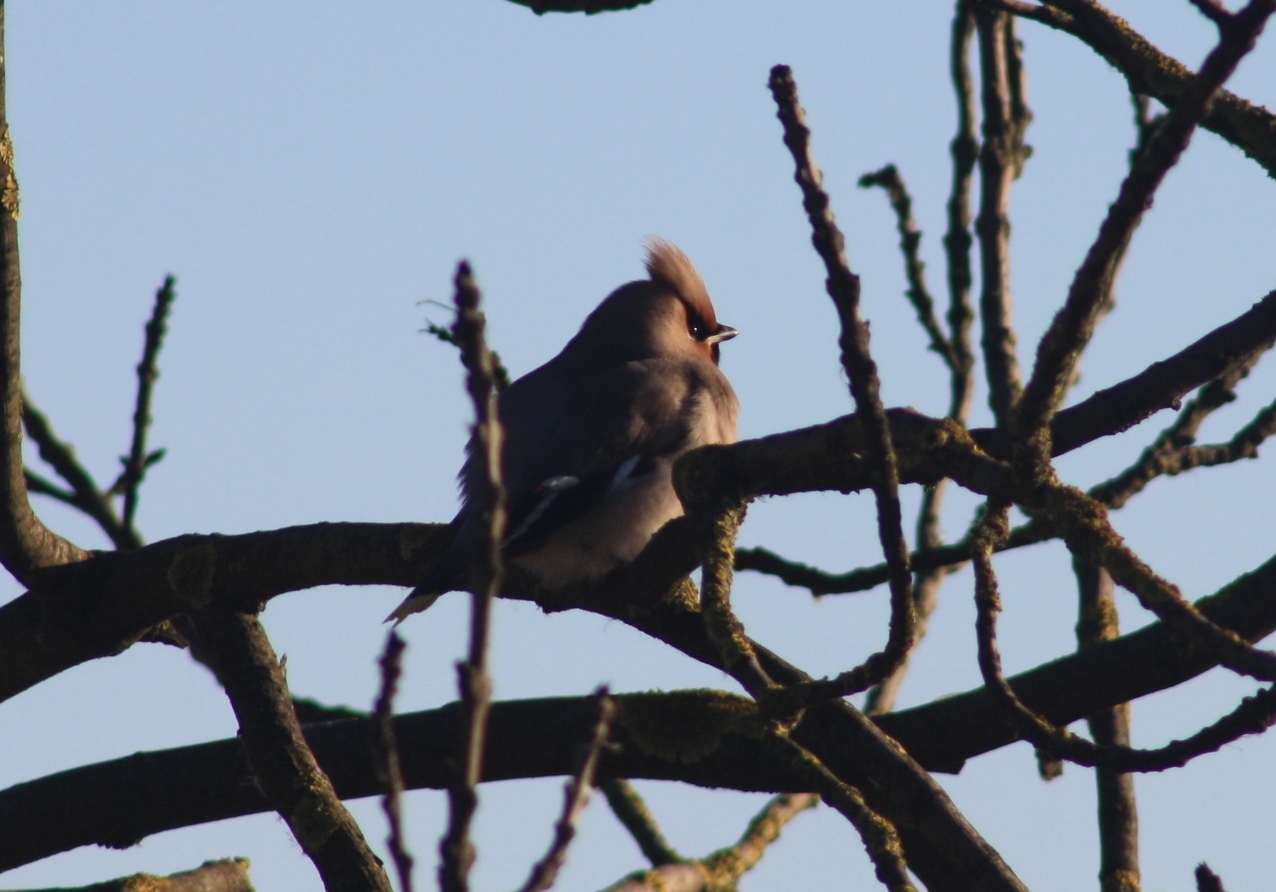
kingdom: Animalia
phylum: Chordata
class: Aves
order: Passeriformes
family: Bombycillidae
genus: Bombycilla
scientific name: Bombycilla garrulus
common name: Bohemian waxwing
